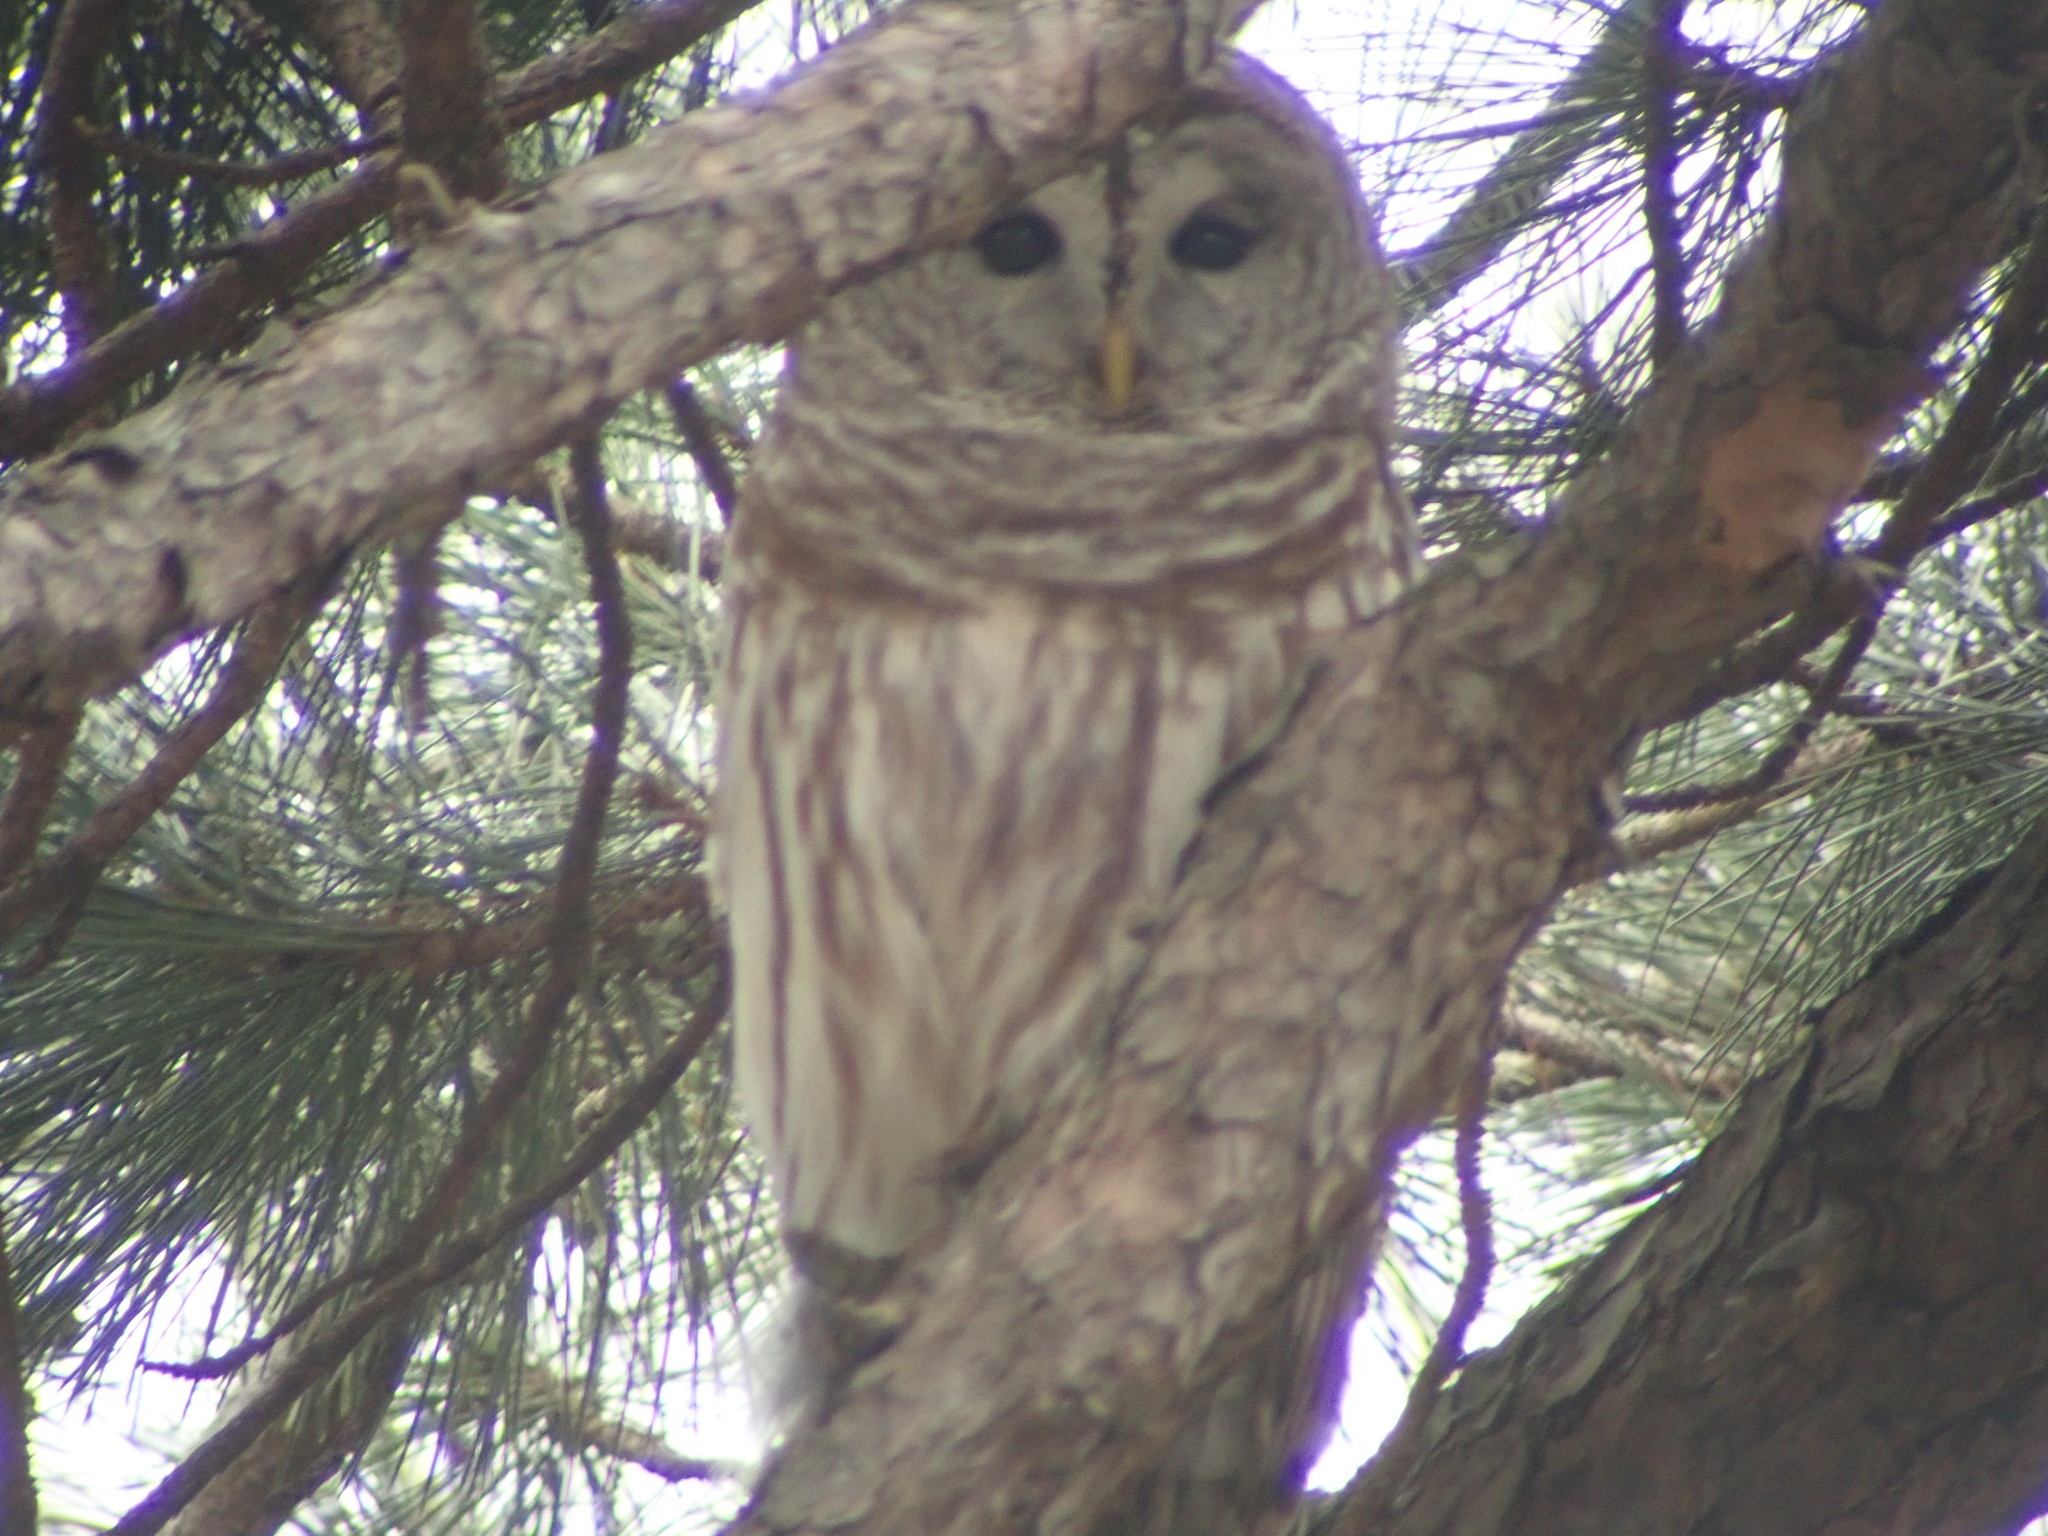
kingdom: Animalia
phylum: Chordata
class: Aves
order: Strigiformes
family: Strigidae
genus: Strix
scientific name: Strix varia
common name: Barred owl
